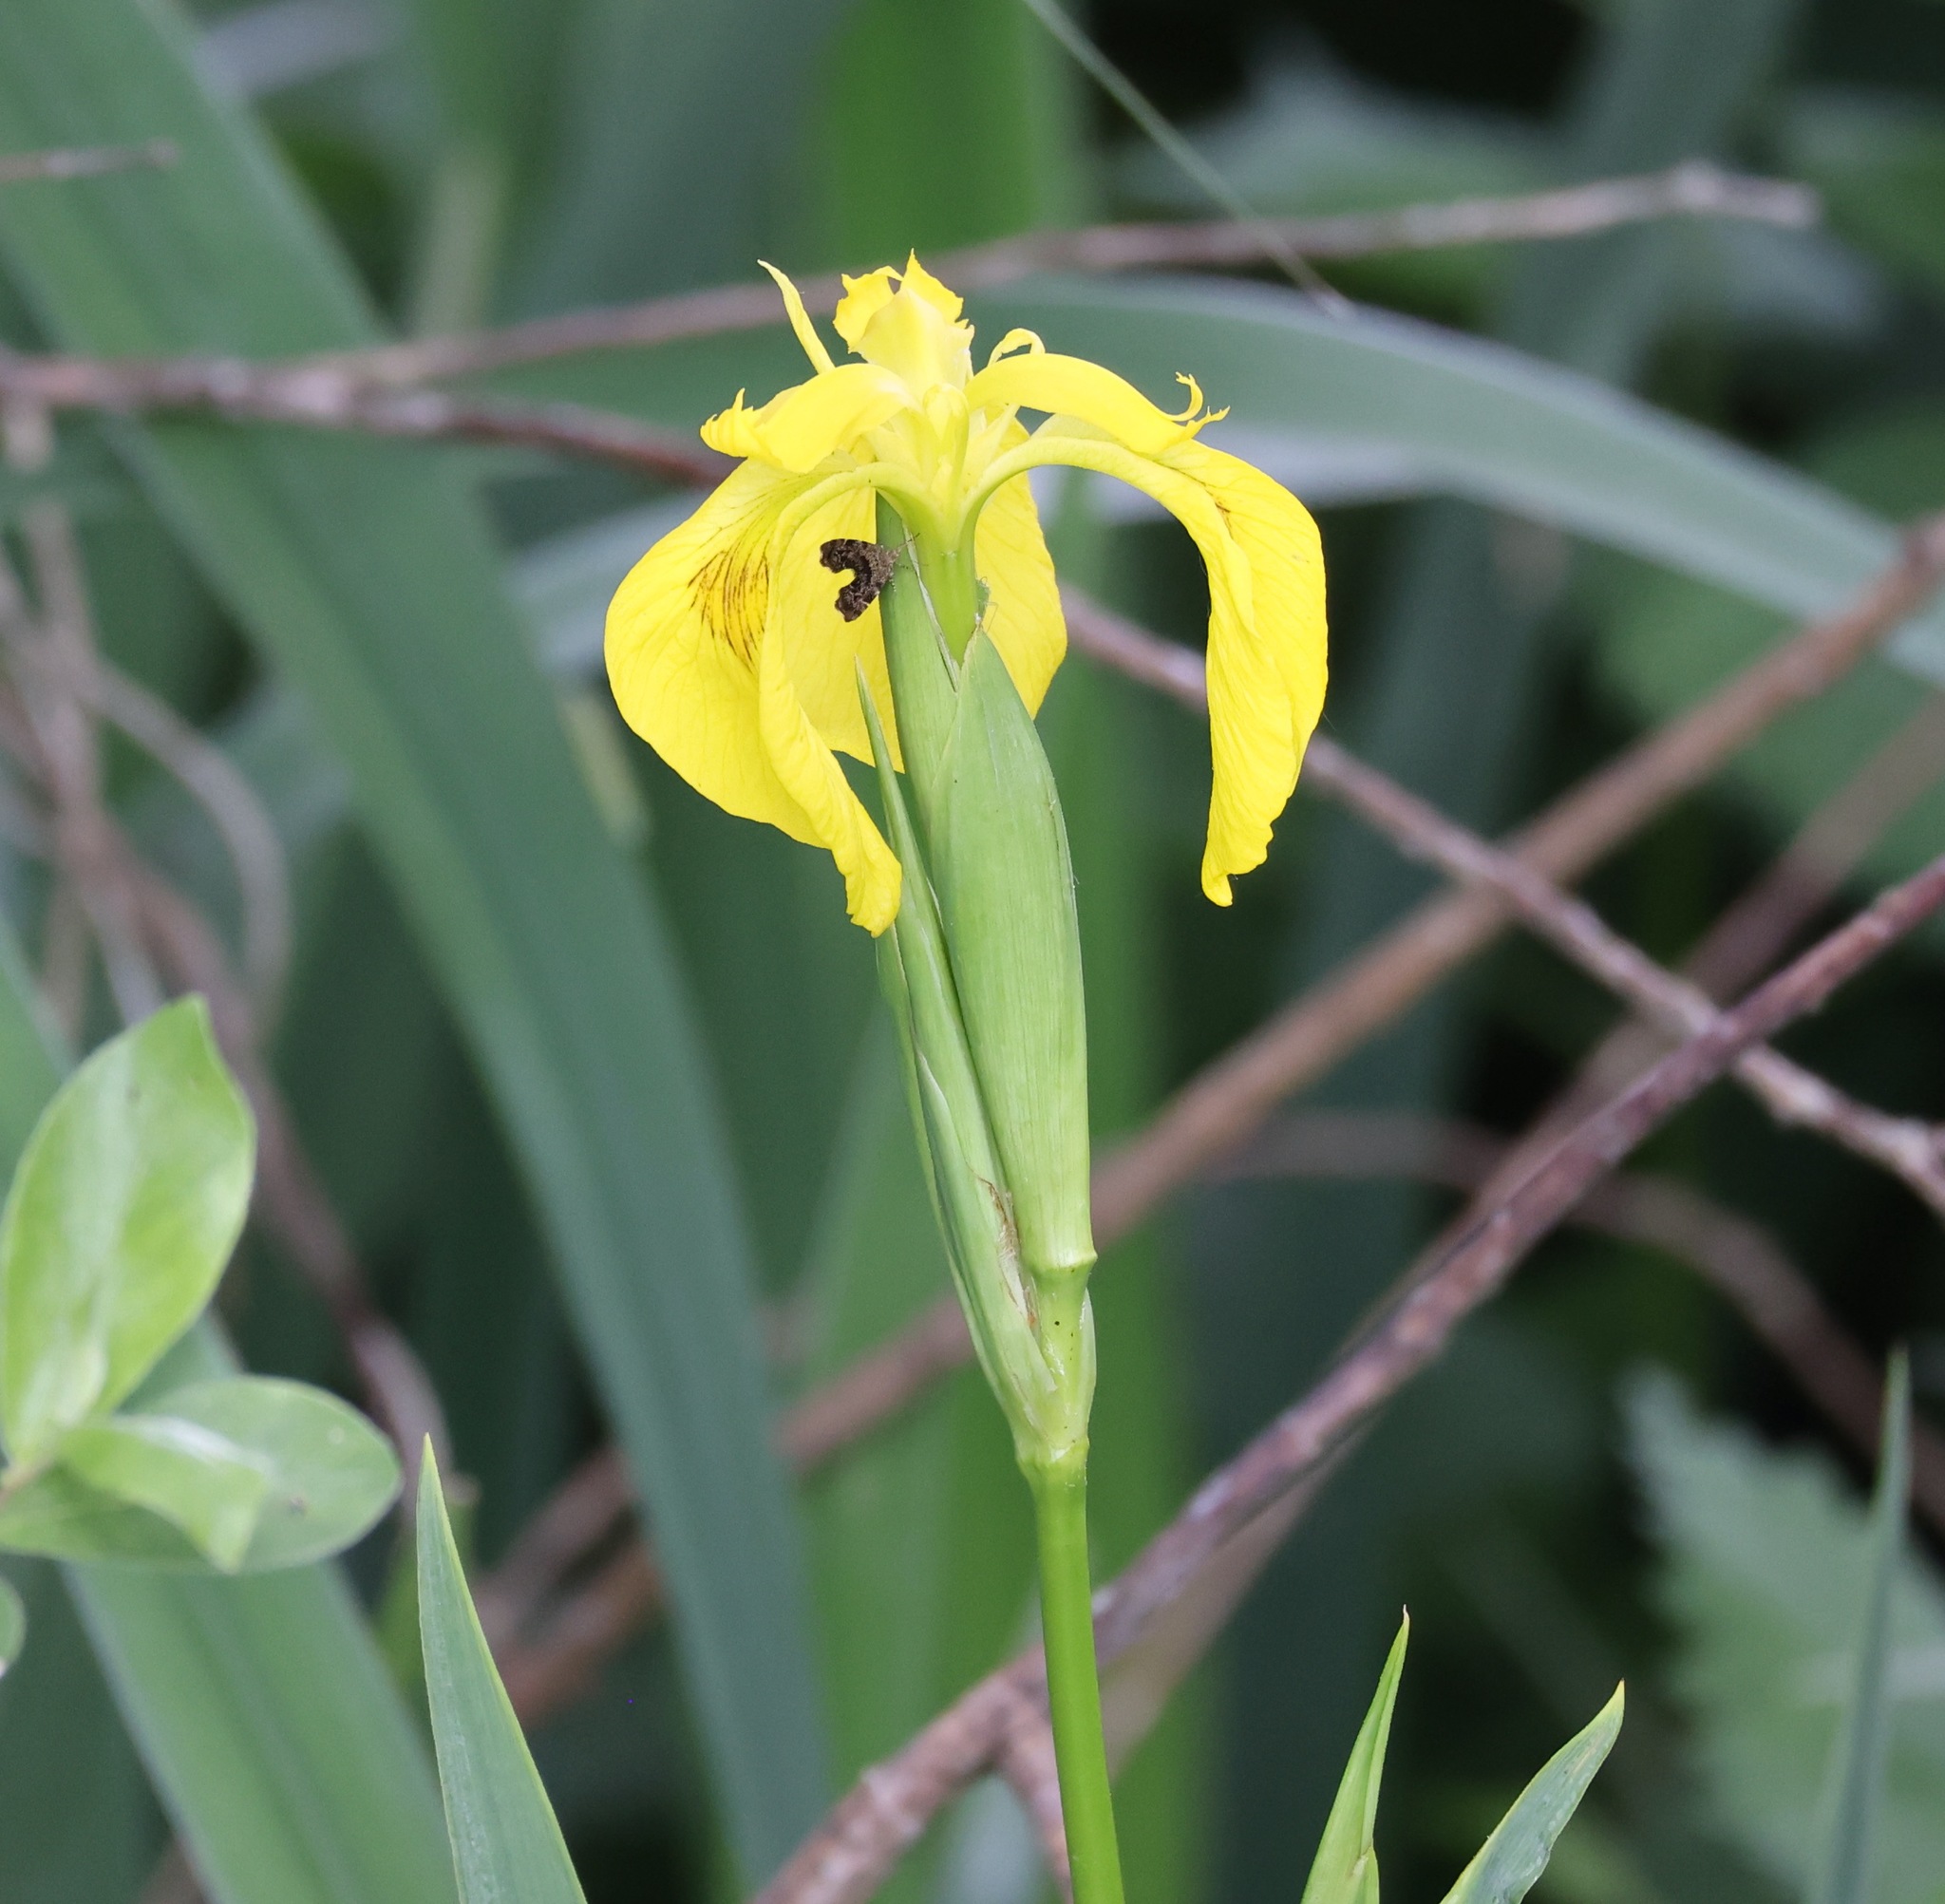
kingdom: Plantae
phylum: Tracheophyta
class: Liliopsida
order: Asparagales
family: Iridaceae
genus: Iris
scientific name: Iris pseudacorus
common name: Yellow flag
